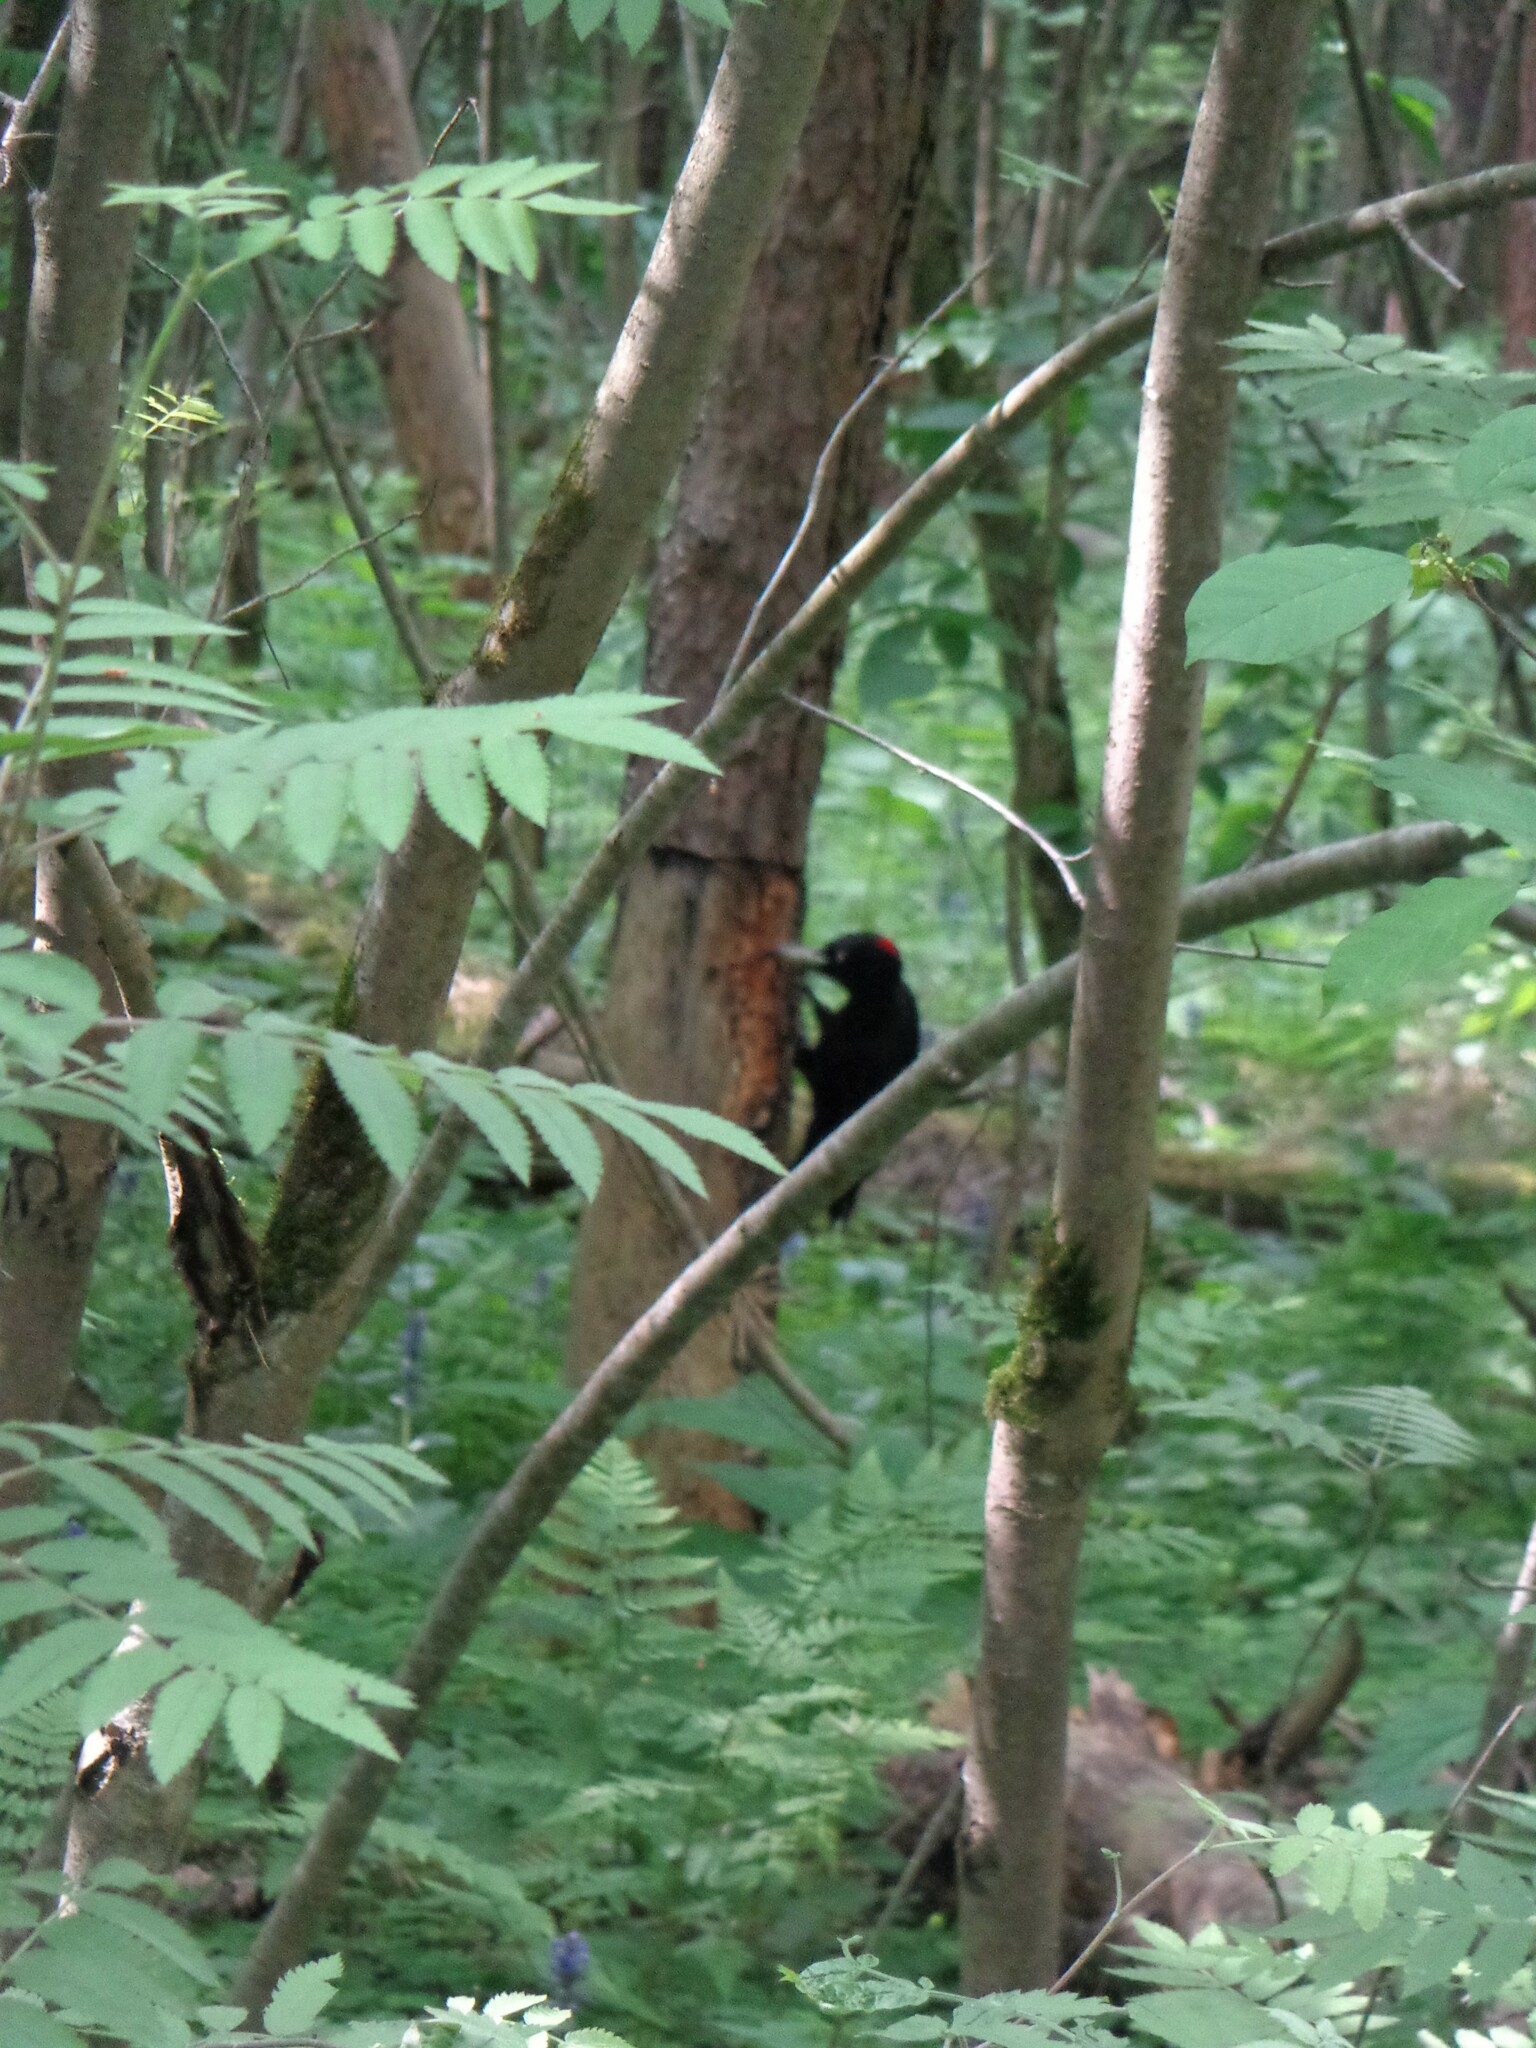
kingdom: Animalia
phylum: Chordata
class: Aves
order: Piciformes
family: Picidae
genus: Dryocopus
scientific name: Dryocopus martius
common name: Black woodpecker
